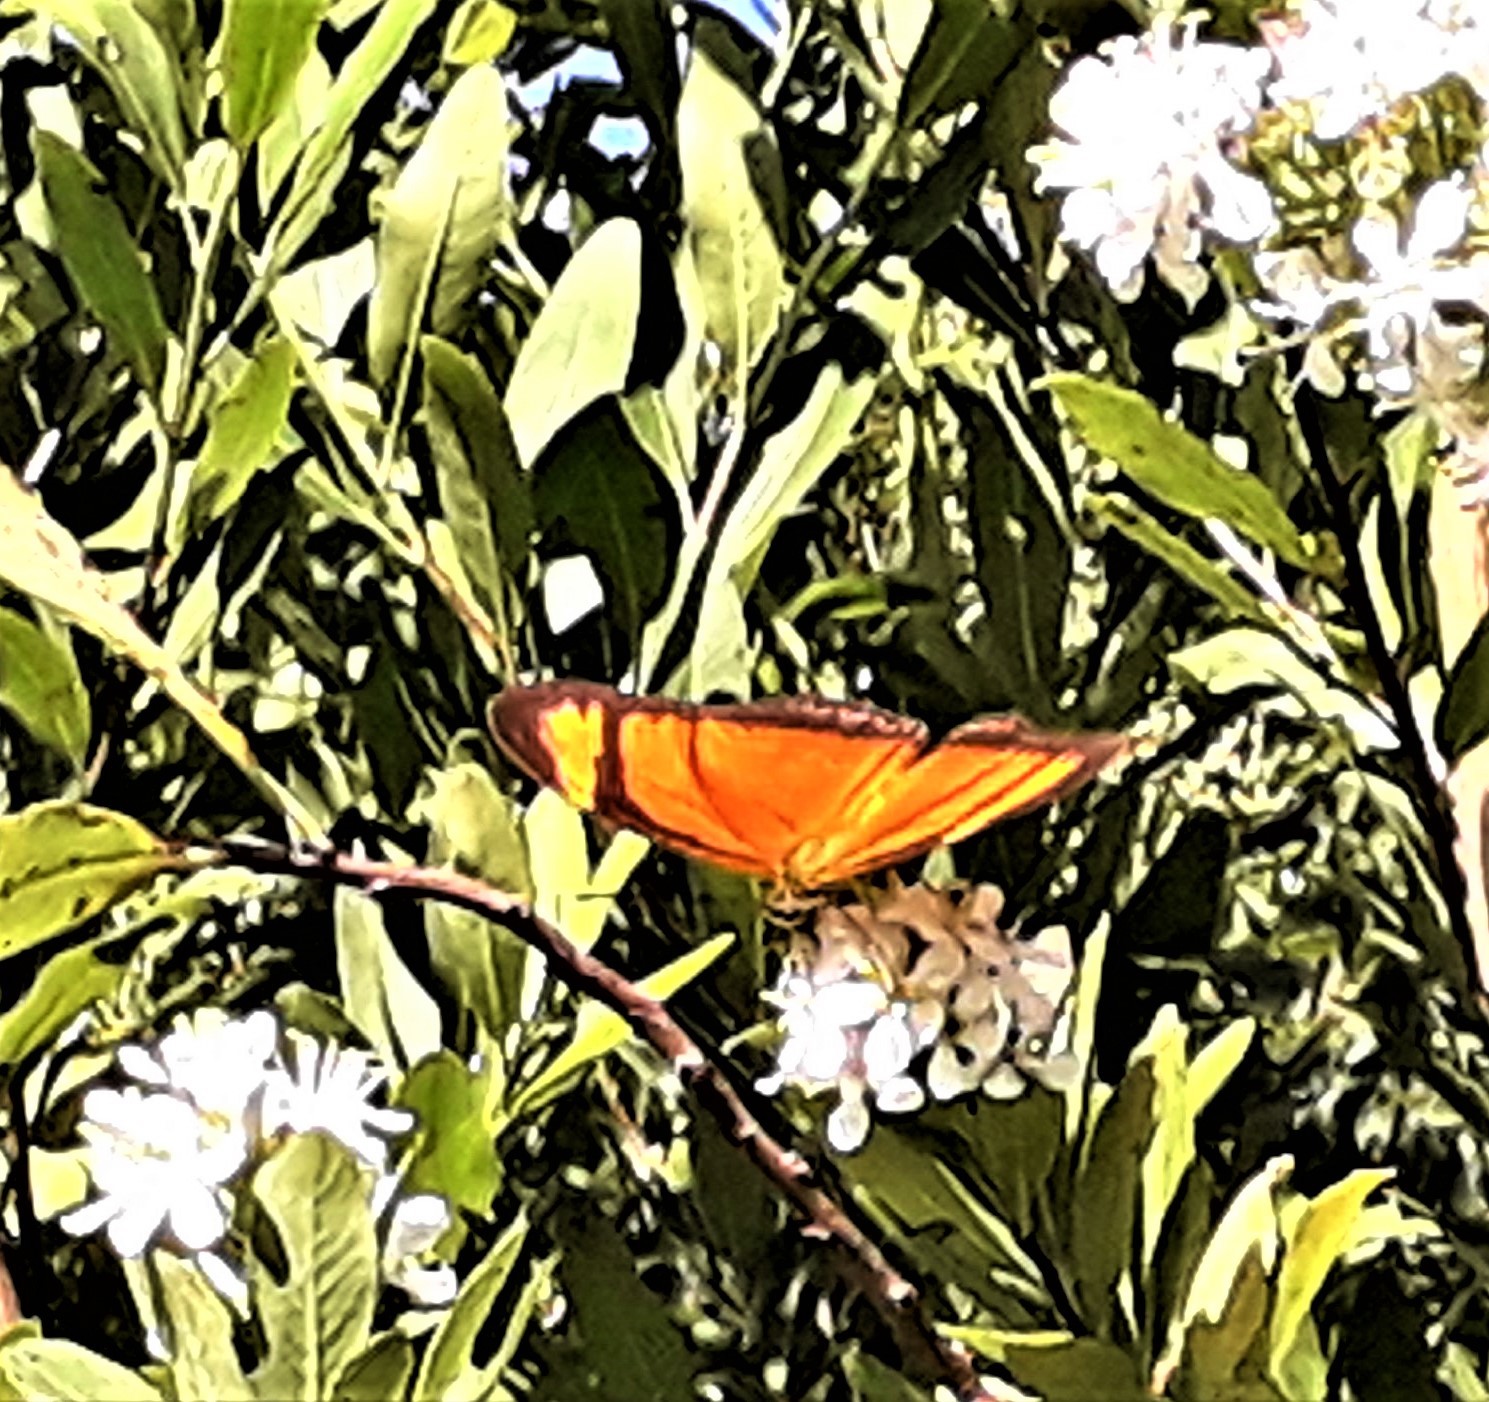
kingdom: Animalia
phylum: Arthropoda
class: Insecta
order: Lepidoptera
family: Nymphalidae
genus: Dryas
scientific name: Dryas iulia
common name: Flambeau
